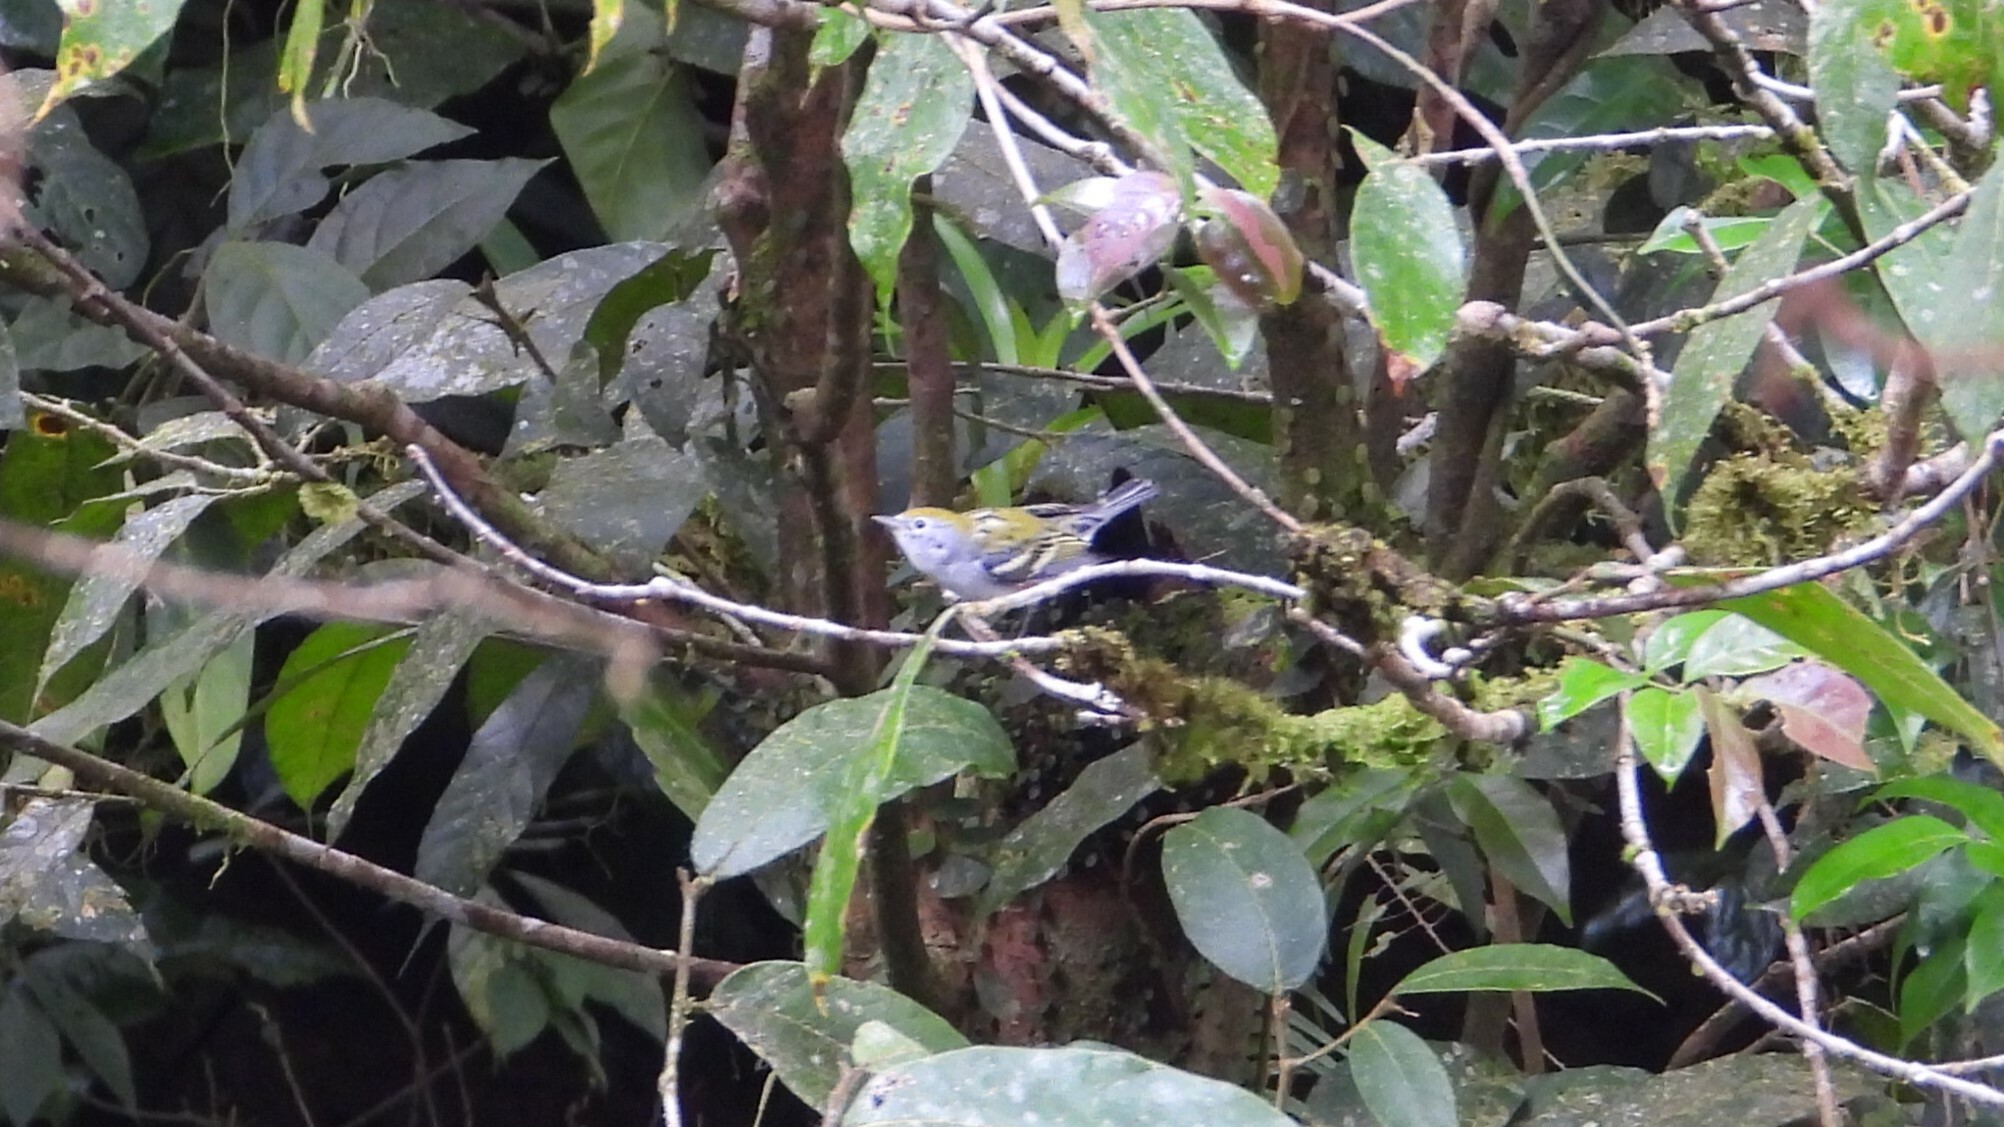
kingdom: Animalia
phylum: Chordata
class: Aves
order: Passeriformes
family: Parulidae
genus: Setophaga
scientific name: Setophaga pensylvanica
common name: Chestnut-sided warbler
